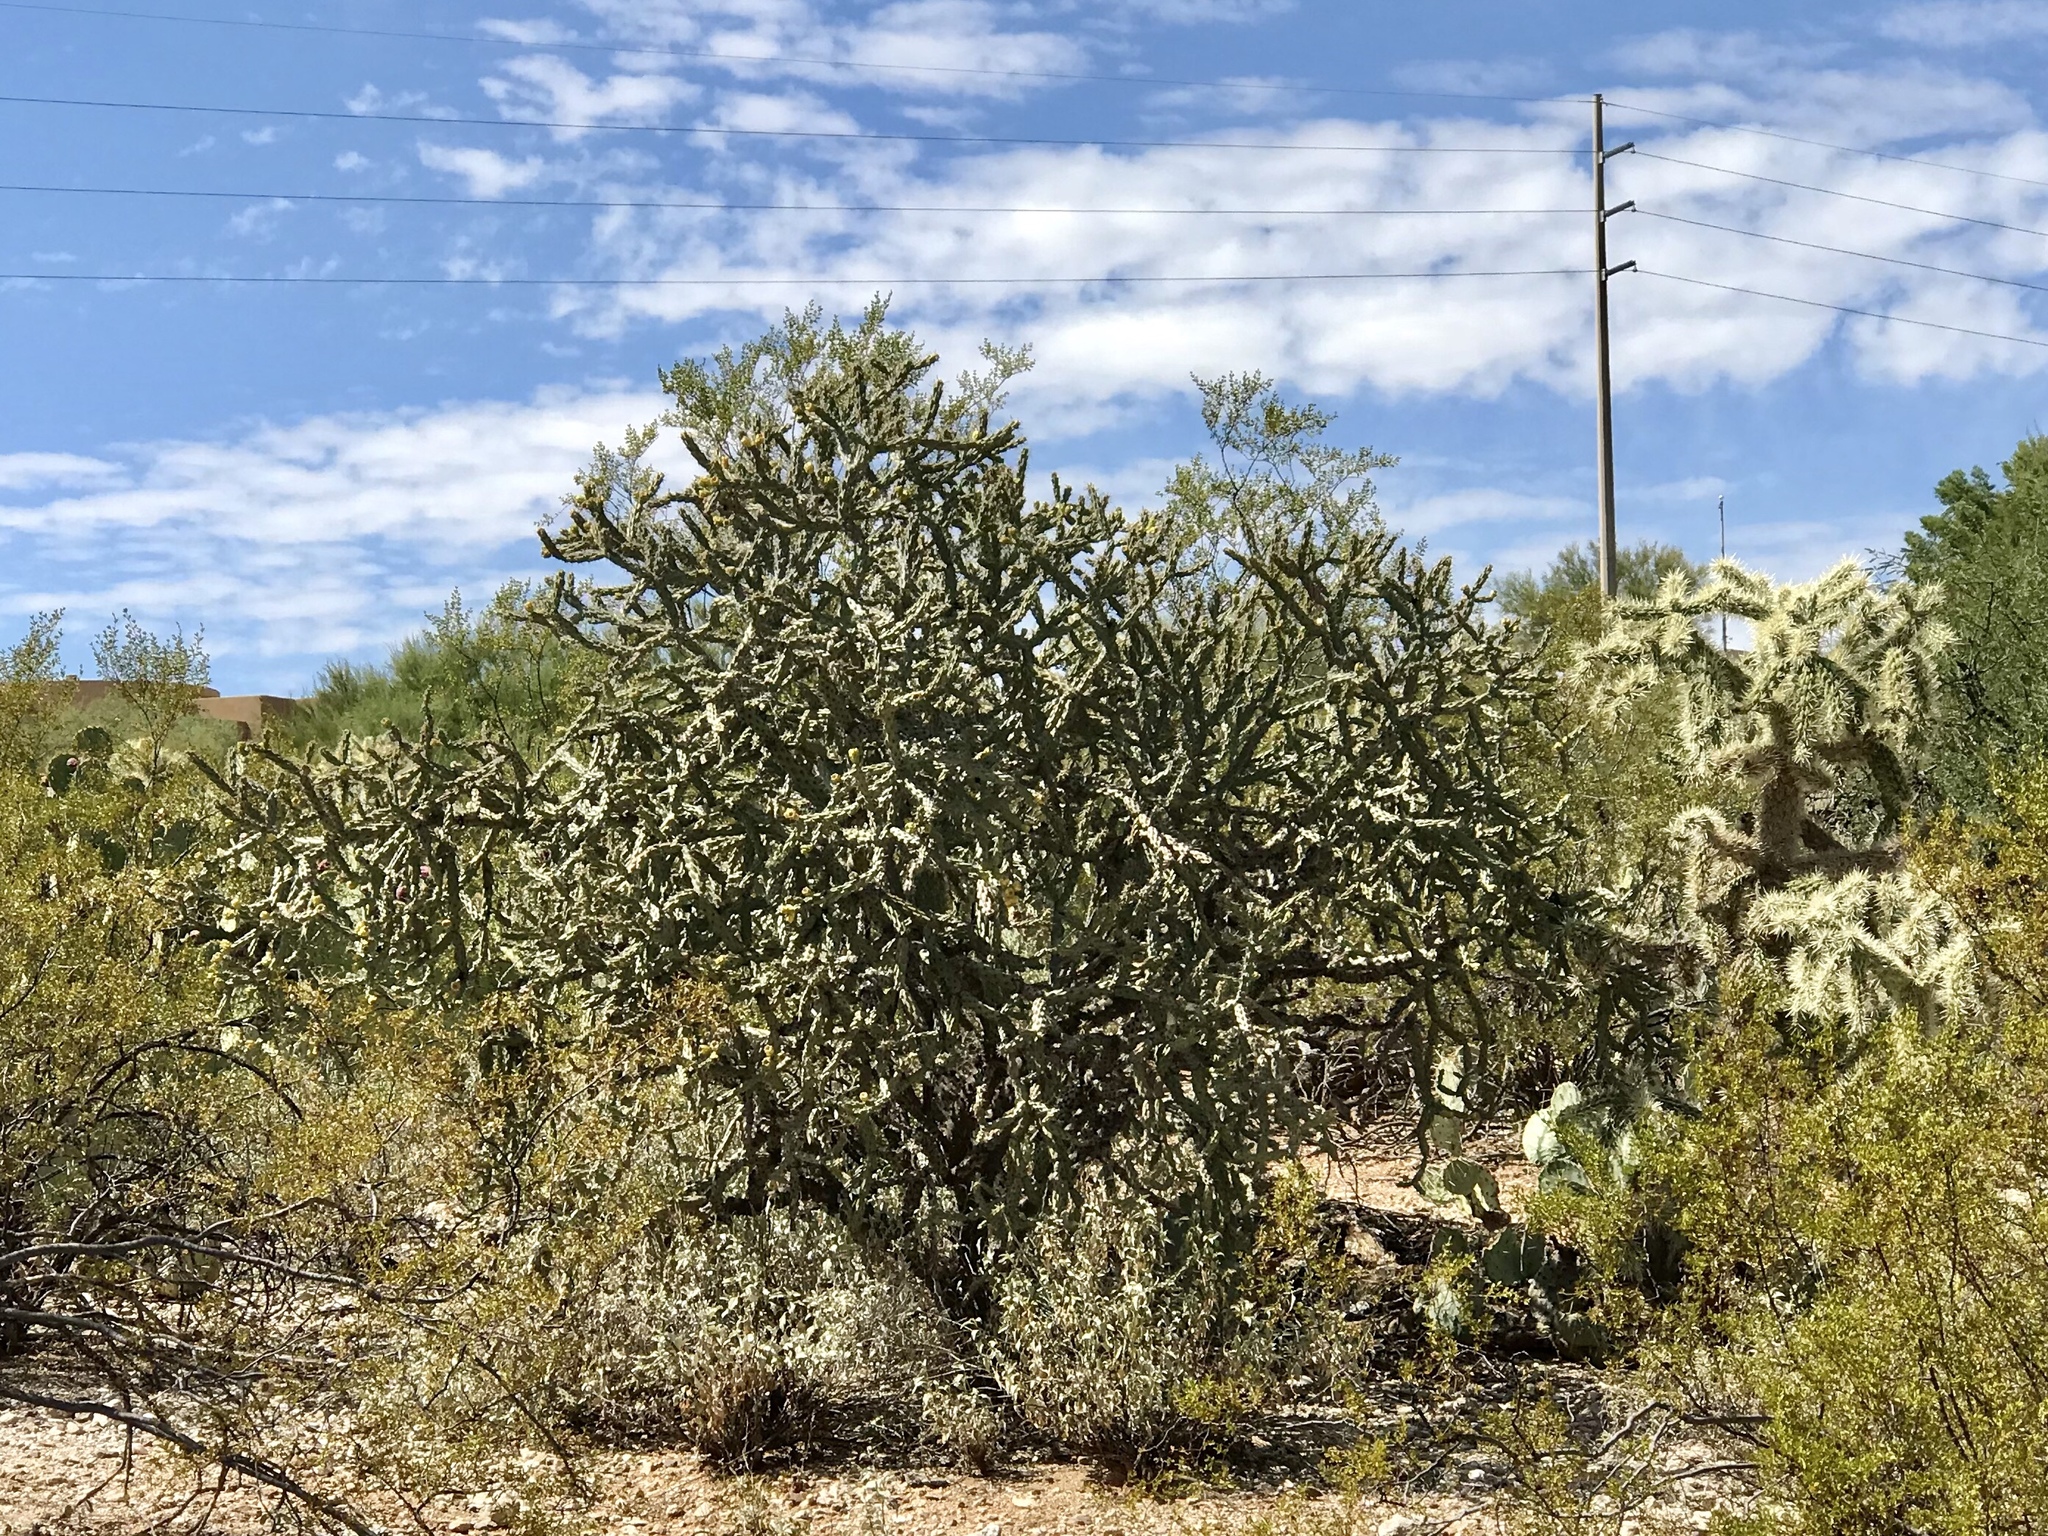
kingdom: Plantae
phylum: Tracheophyta
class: Magnoliopsida
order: Caryophyllales
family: Cactaceae
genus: Cylindropuntia
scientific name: Cylindropuntia imbricata
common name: Candelabrum cactus
